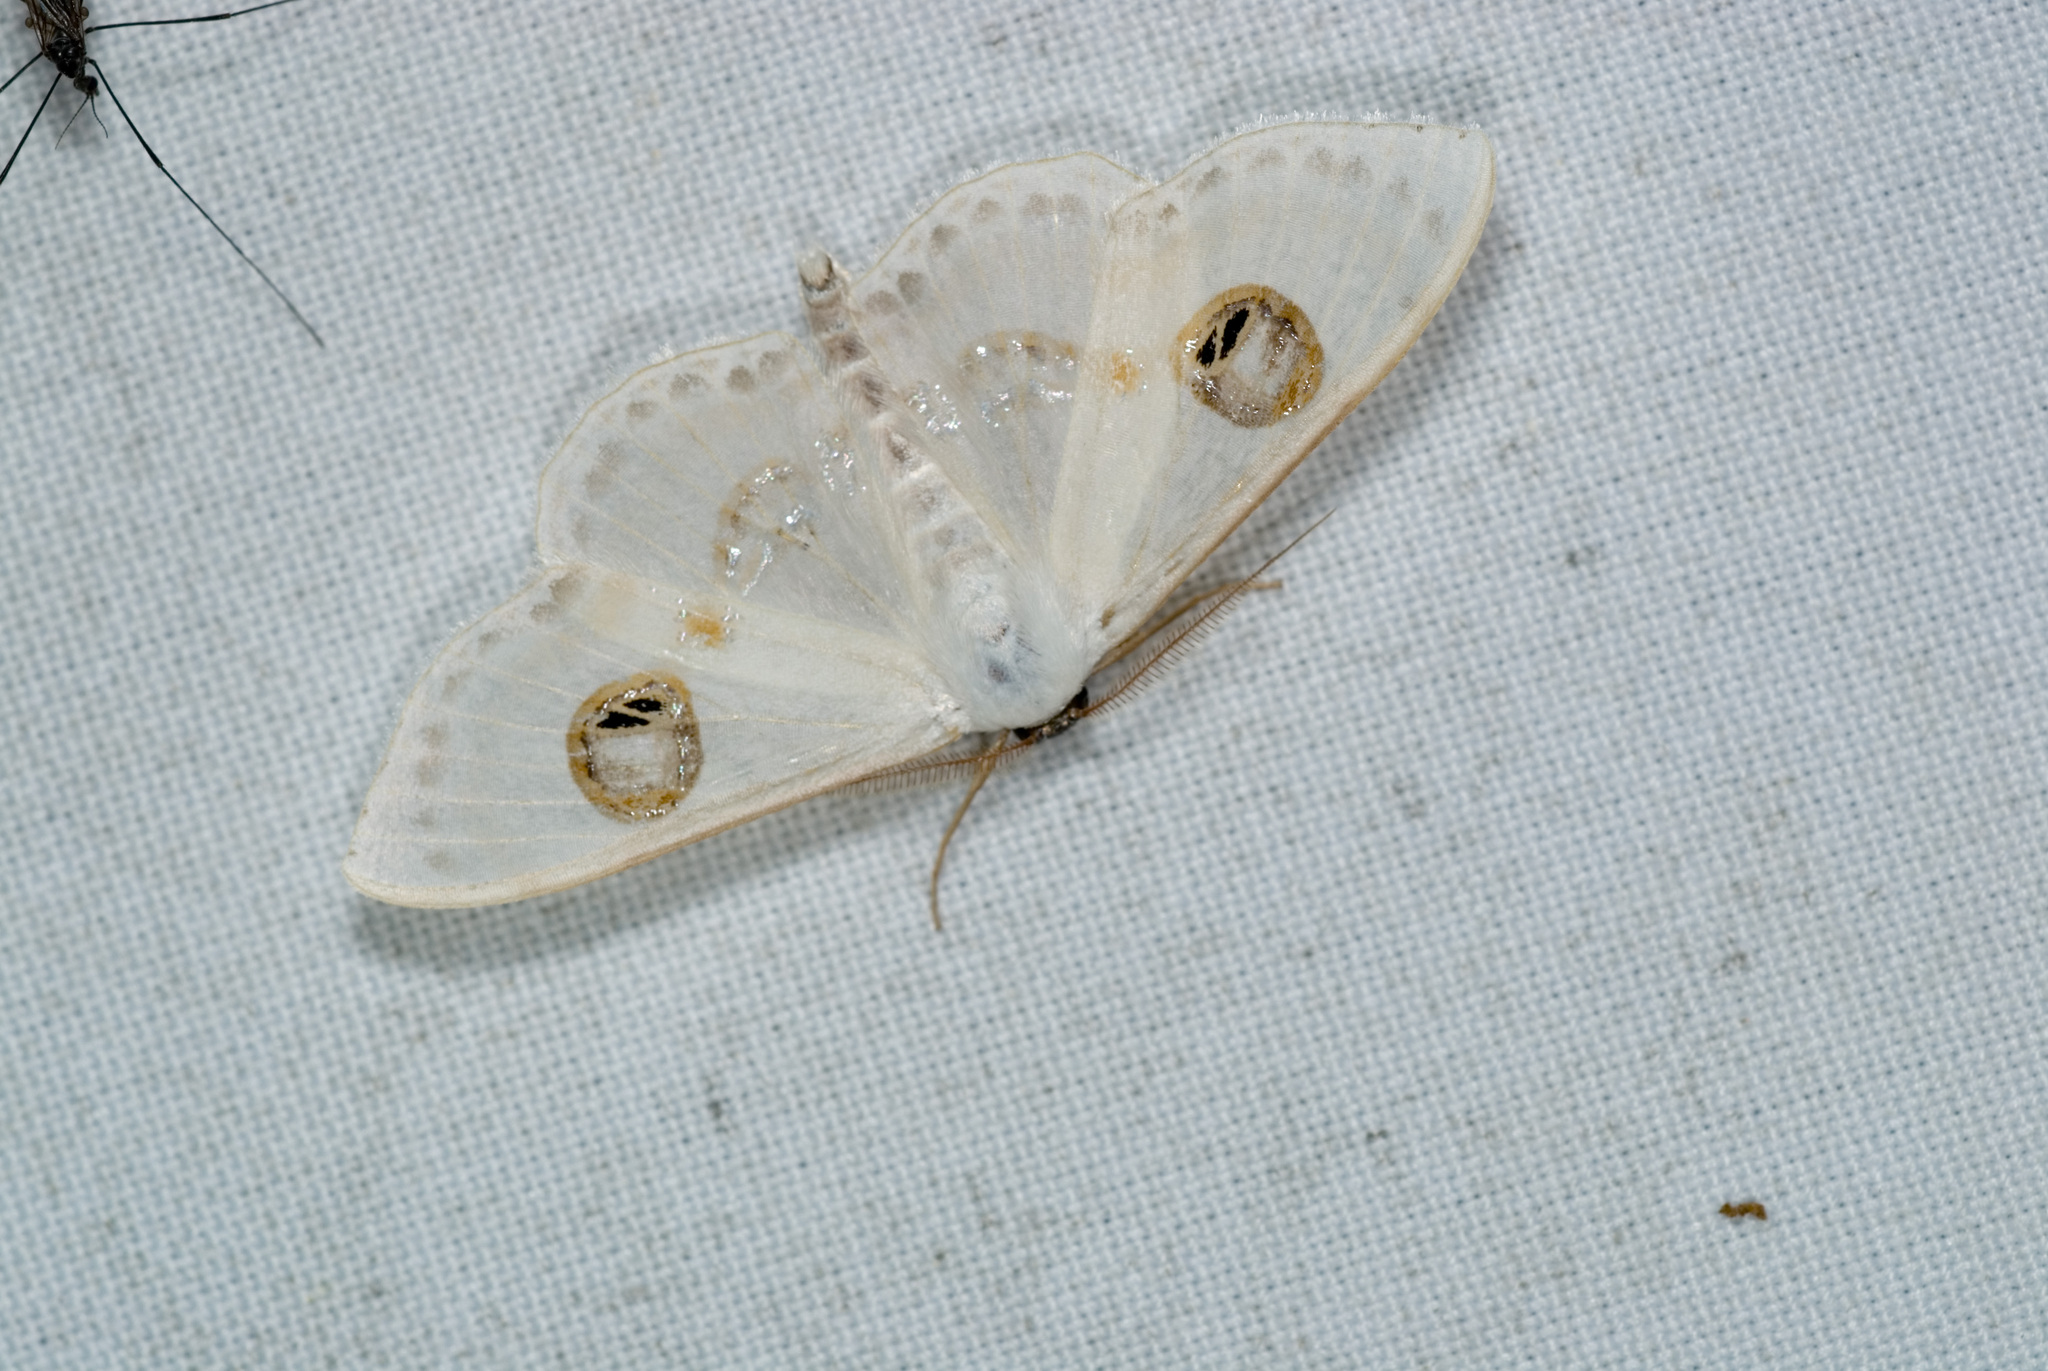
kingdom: Animalia
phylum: Arthropoda
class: Insecta
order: Lepidoptera
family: Geometridae
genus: Problepsis
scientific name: Problepsis albidior
